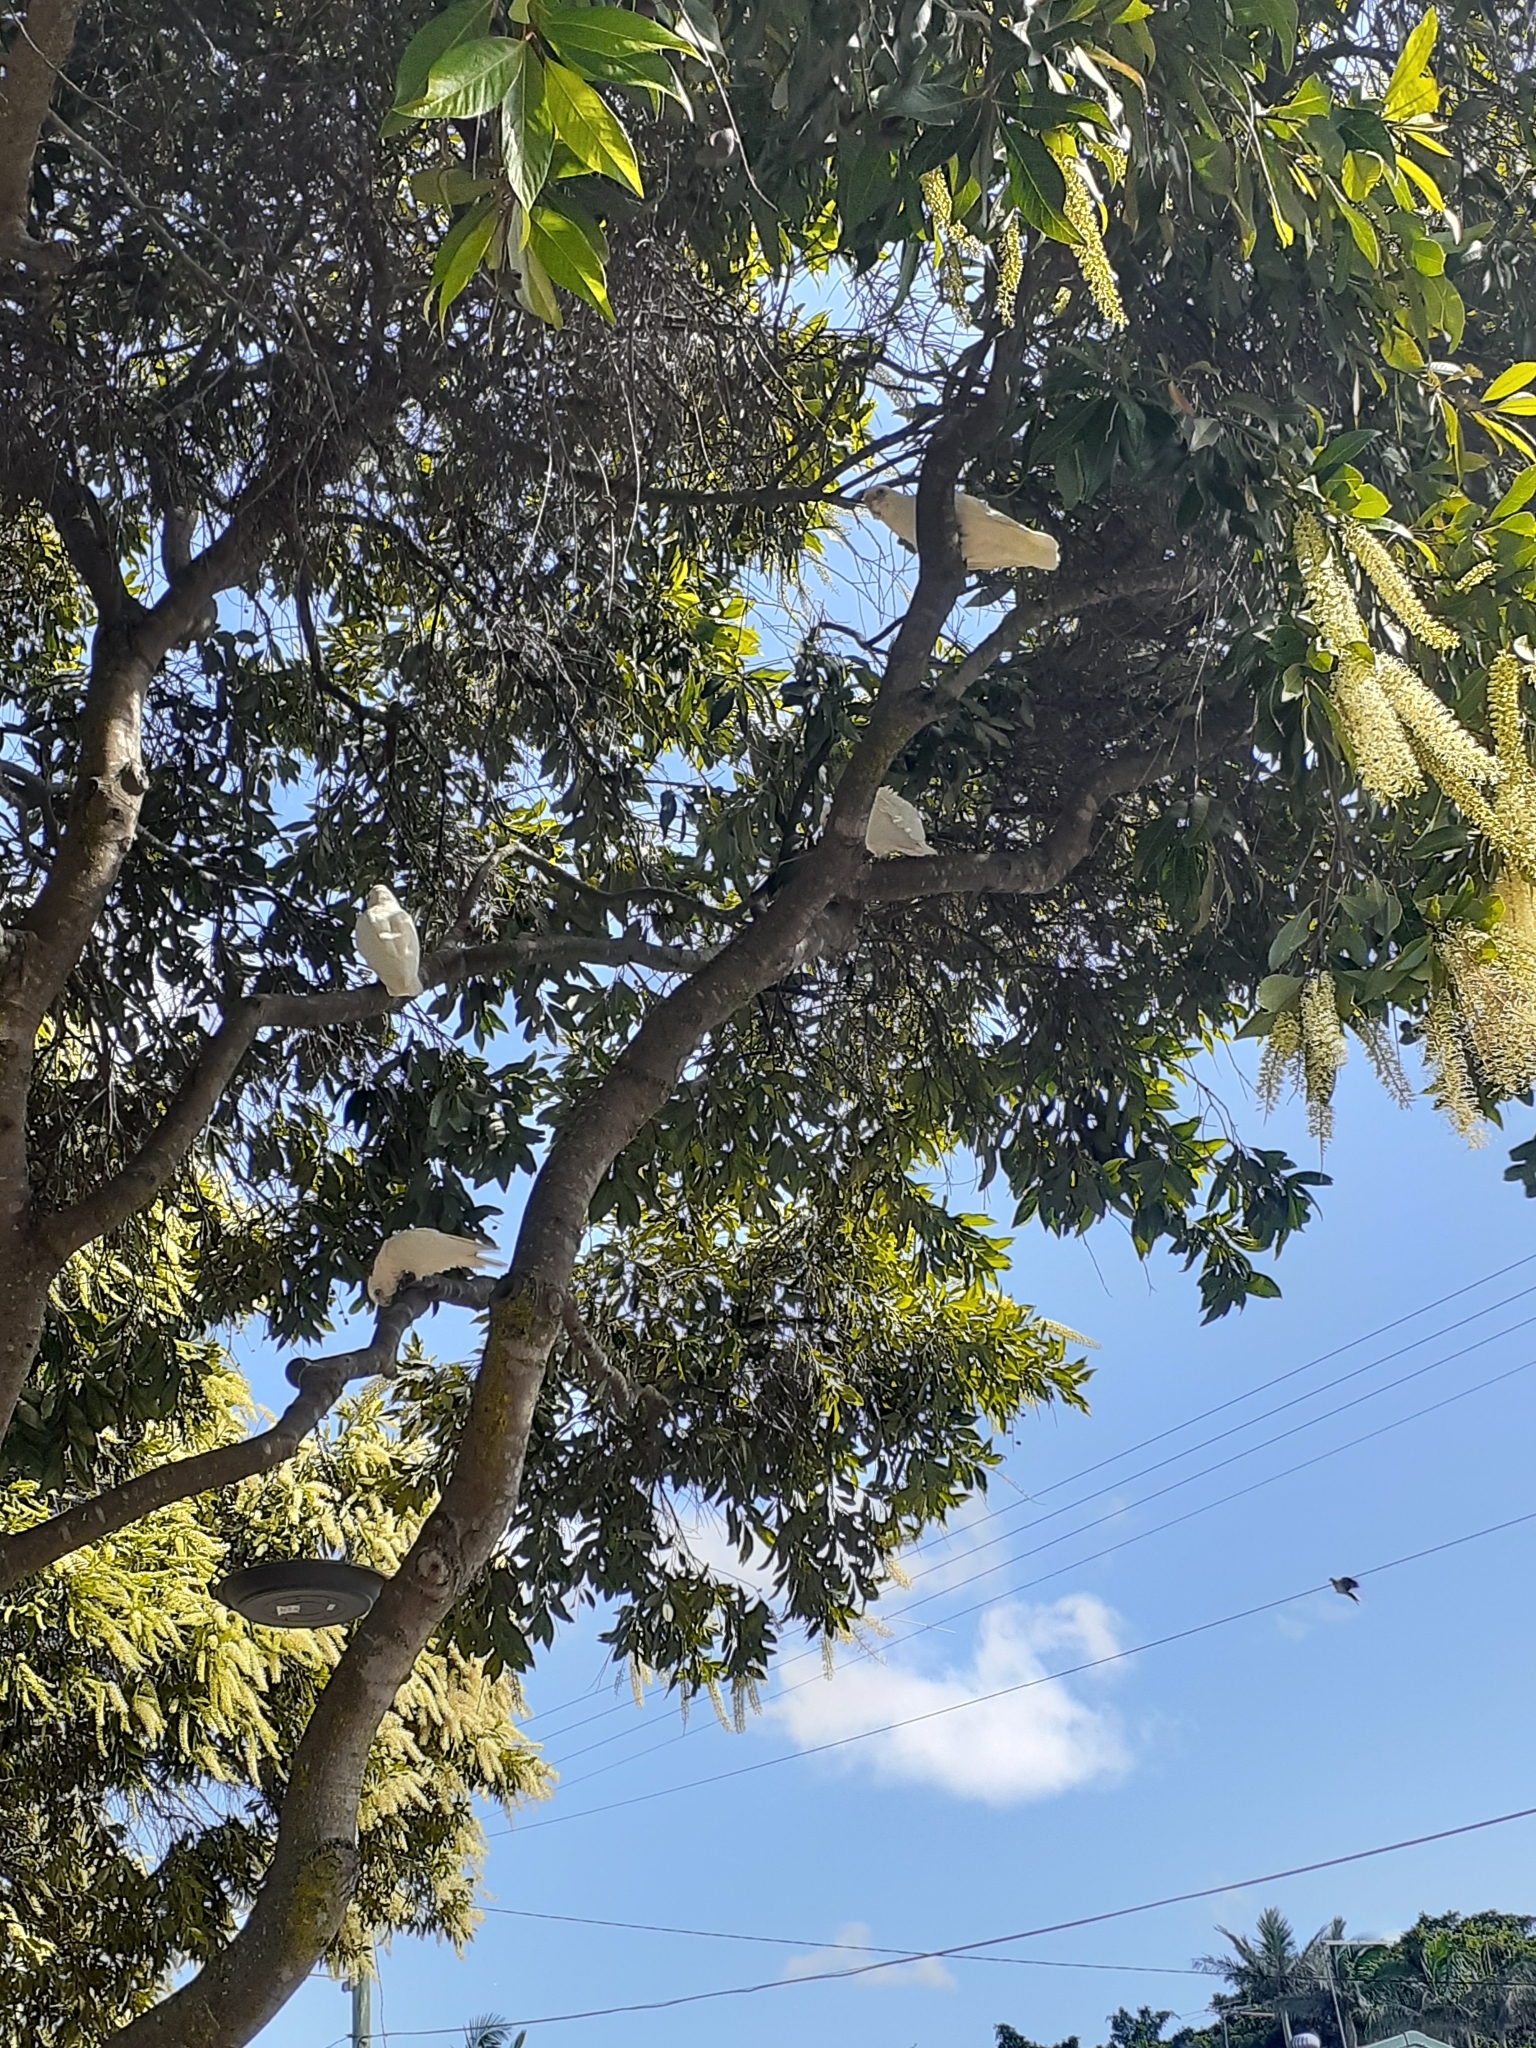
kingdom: Animalia
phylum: Chordata
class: Aves
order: Psittaciformes
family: Psittacidae
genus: Cacatua
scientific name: Cacatua sanguinea
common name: Little corella
